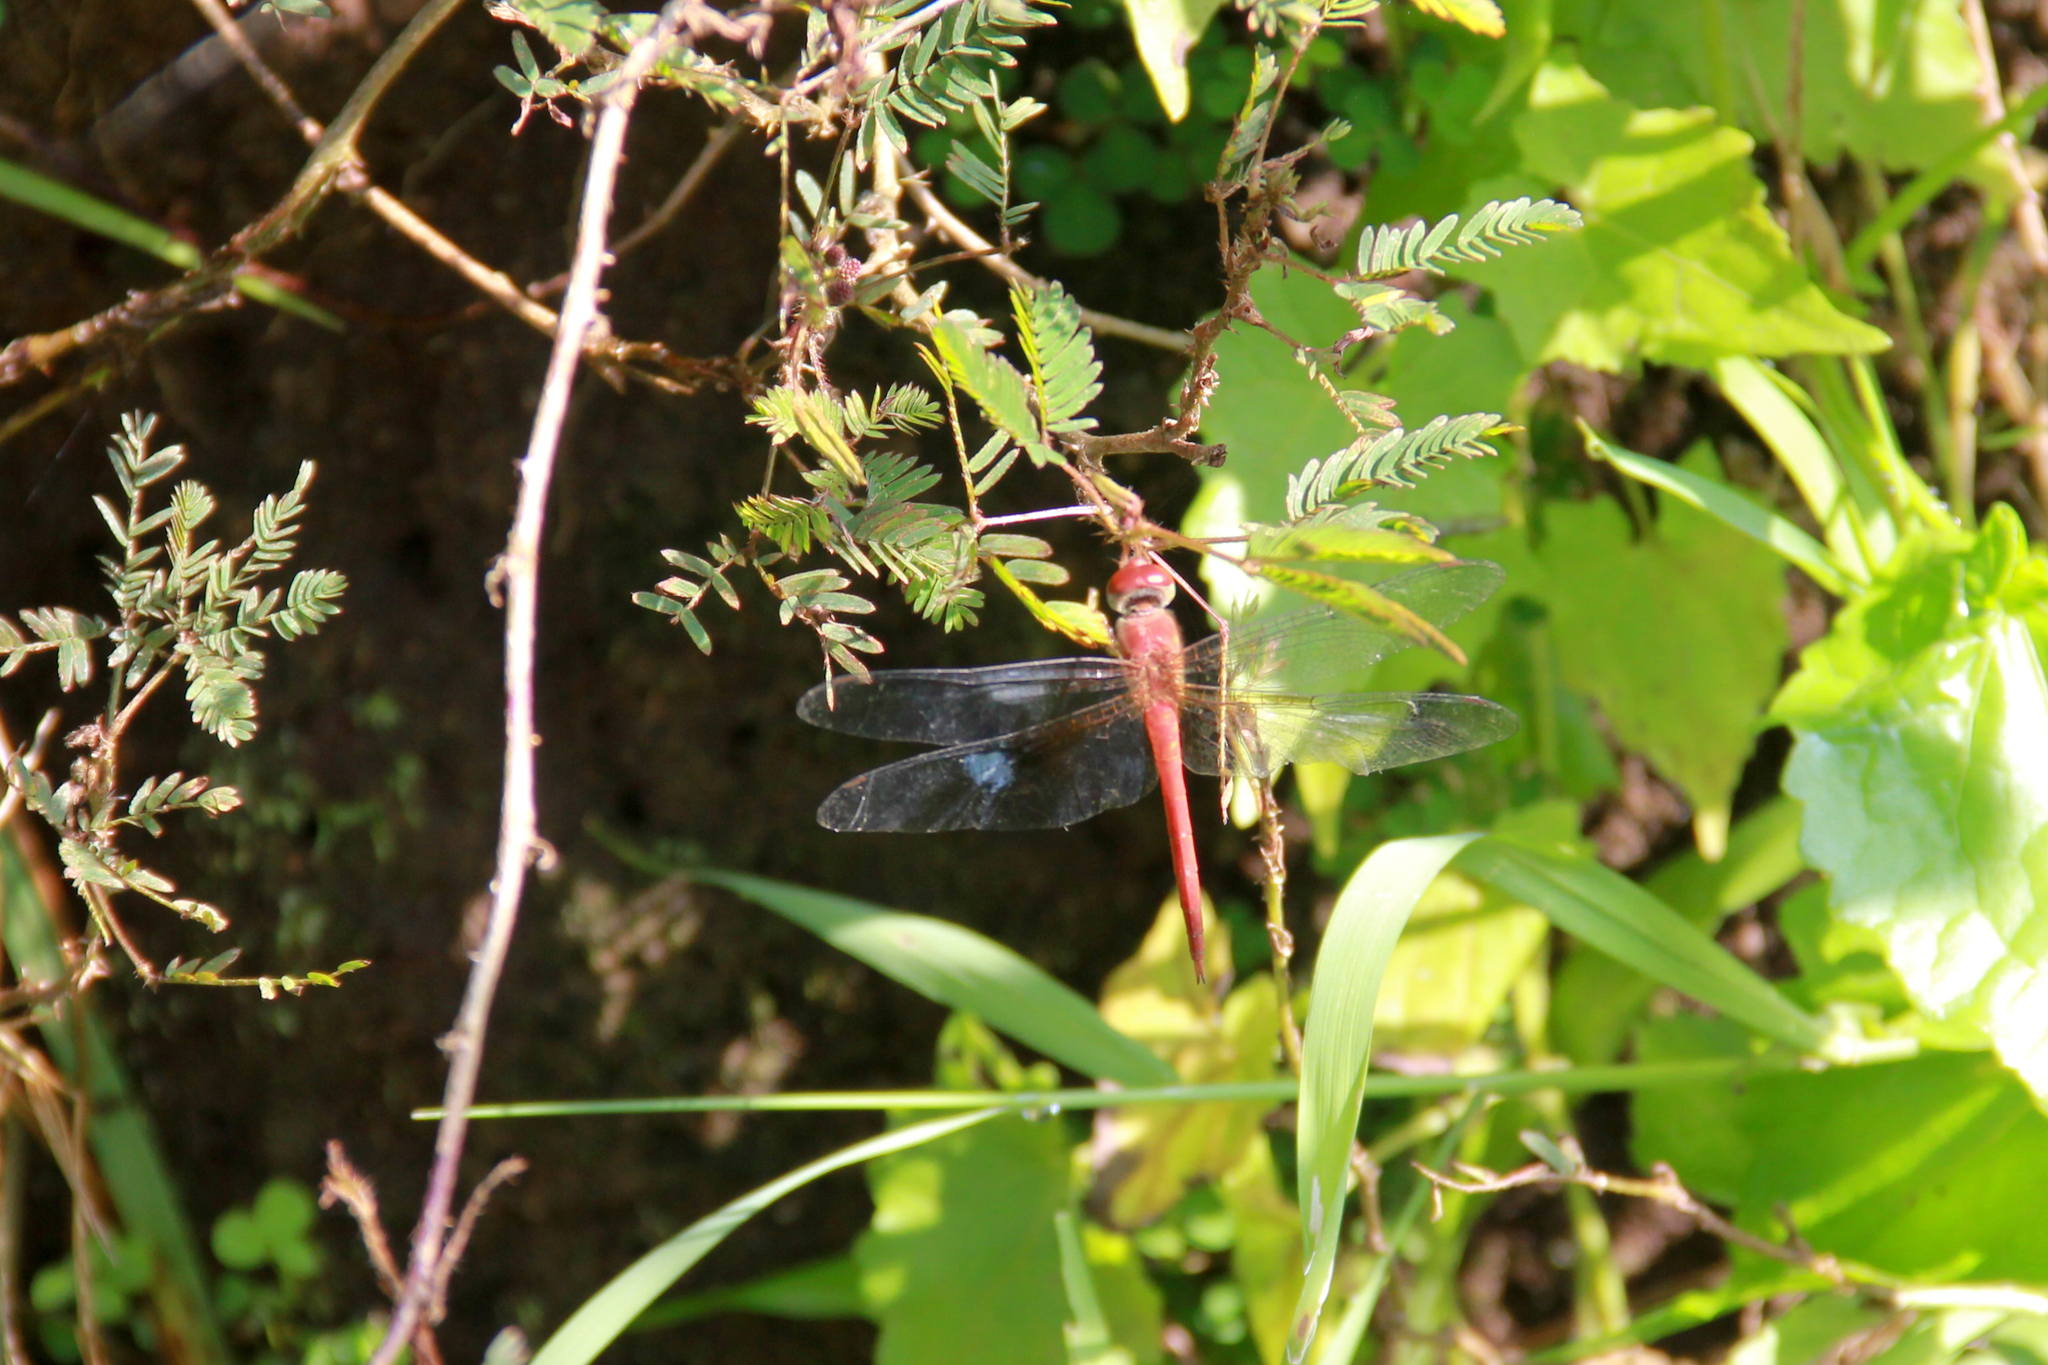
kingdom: Animalia
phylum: Arthropoda
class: Insecta
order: Odonata
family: Libellulidae
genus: Tholymis
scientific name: Tholymis tillarga
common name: Coral-tailed cloud wing
